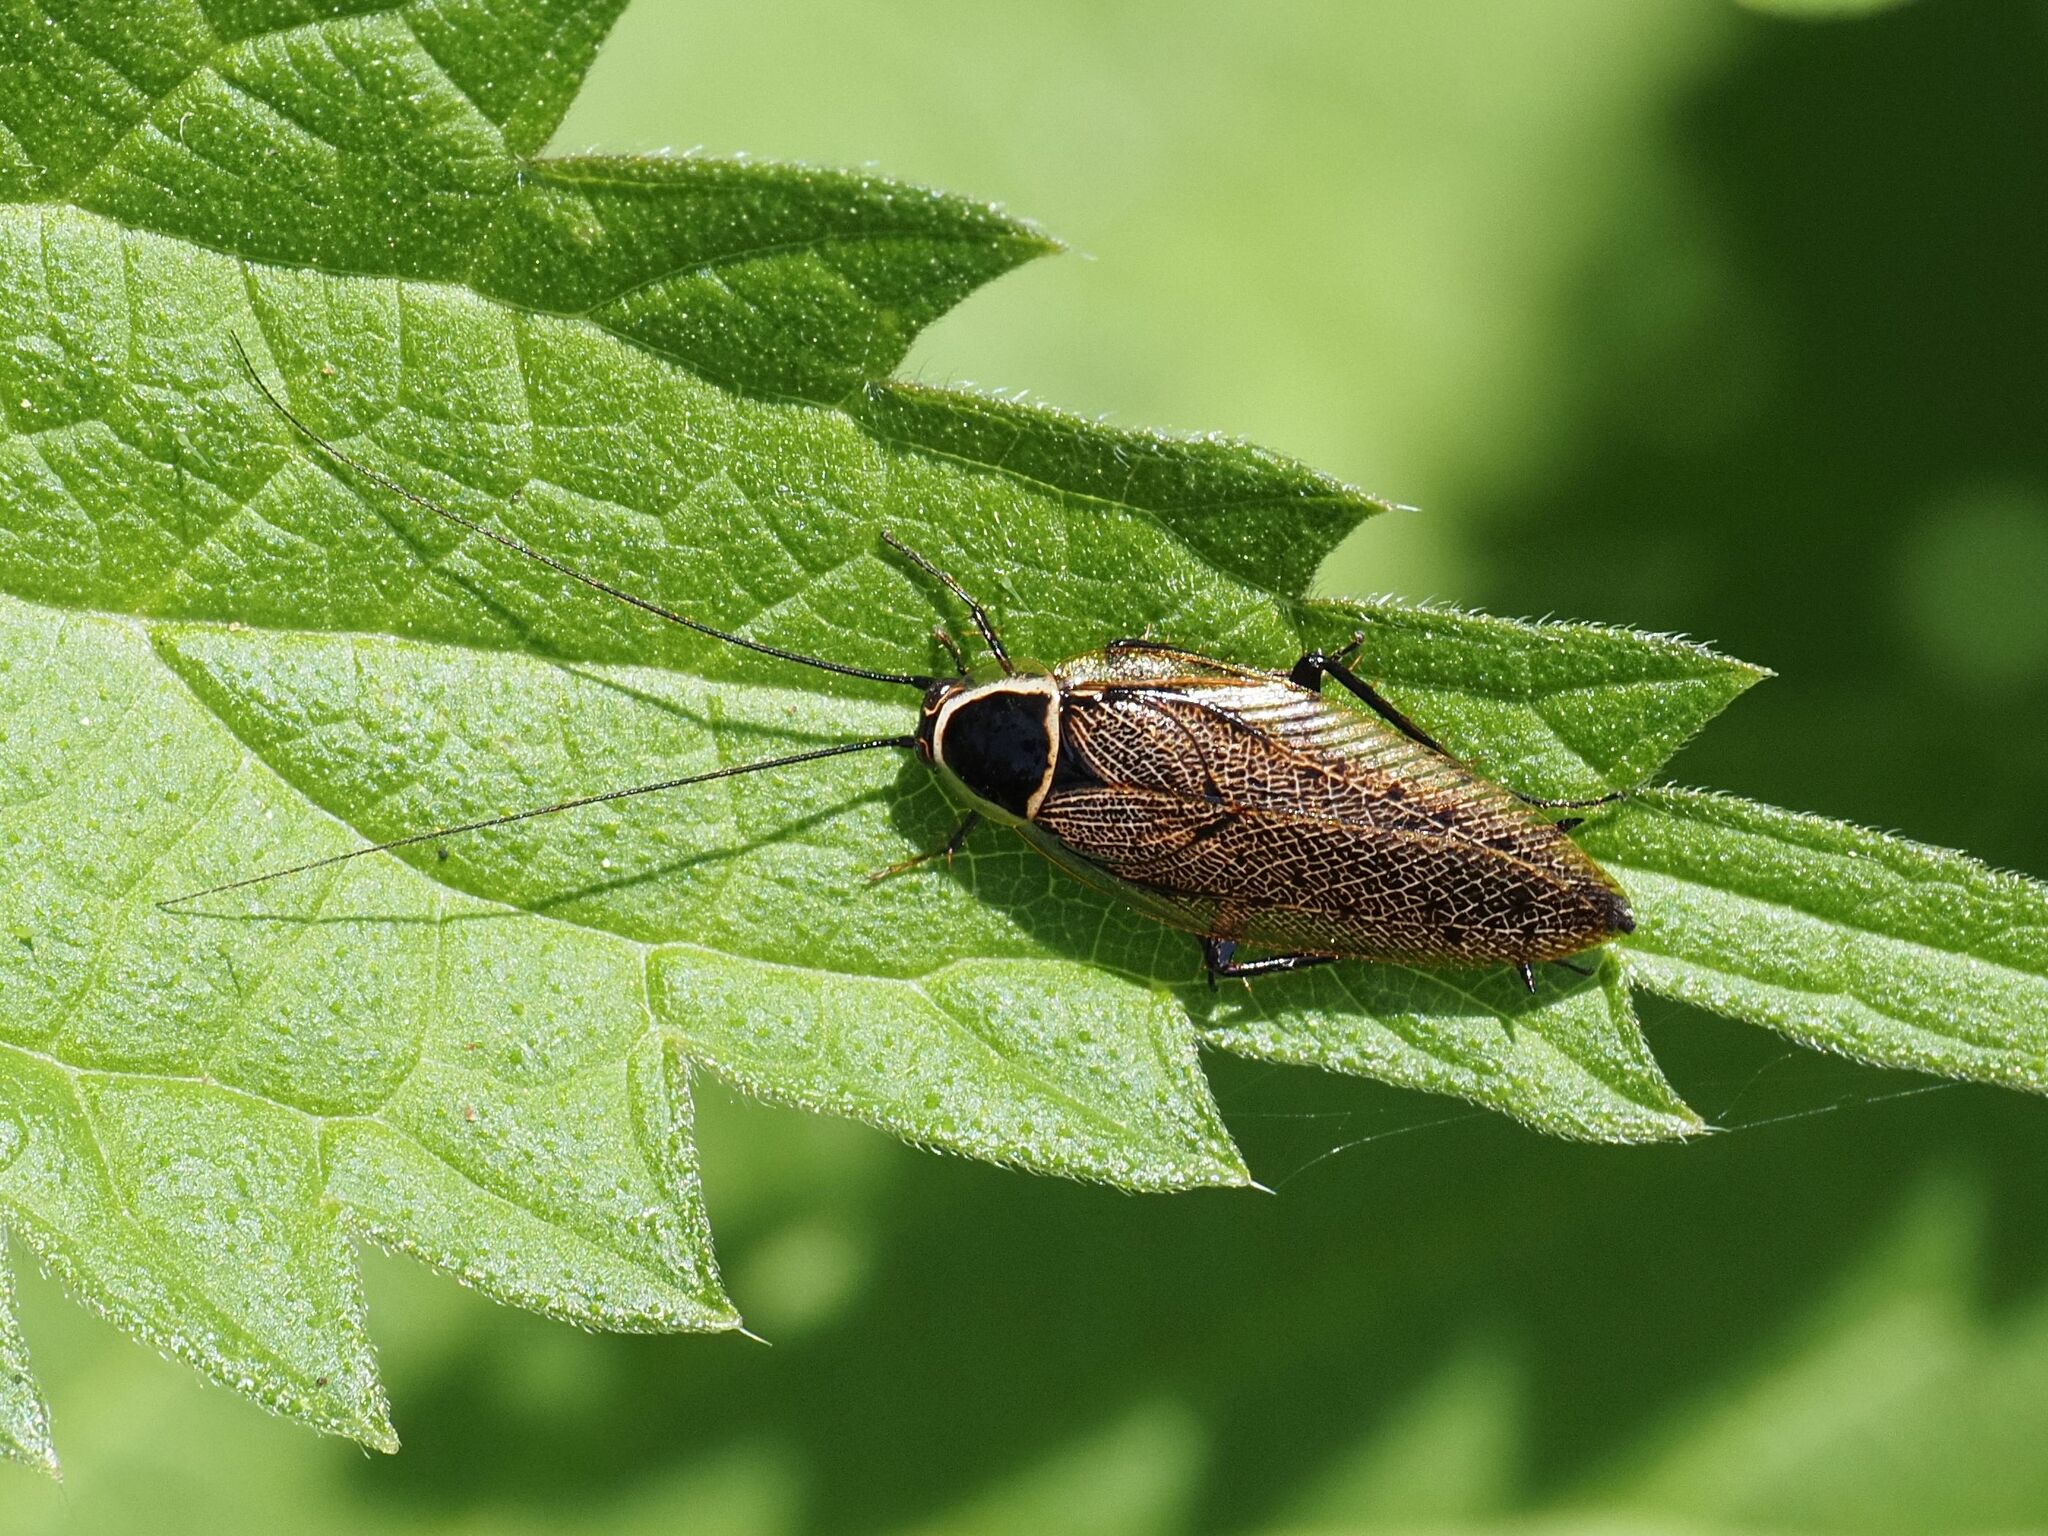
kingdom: Animalia
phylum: Arthropoda
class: Insecta
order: Blattodea
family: Ectobiidae
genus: Ectobius
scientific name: Ectobius sylvestris
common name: Forest cockroach
